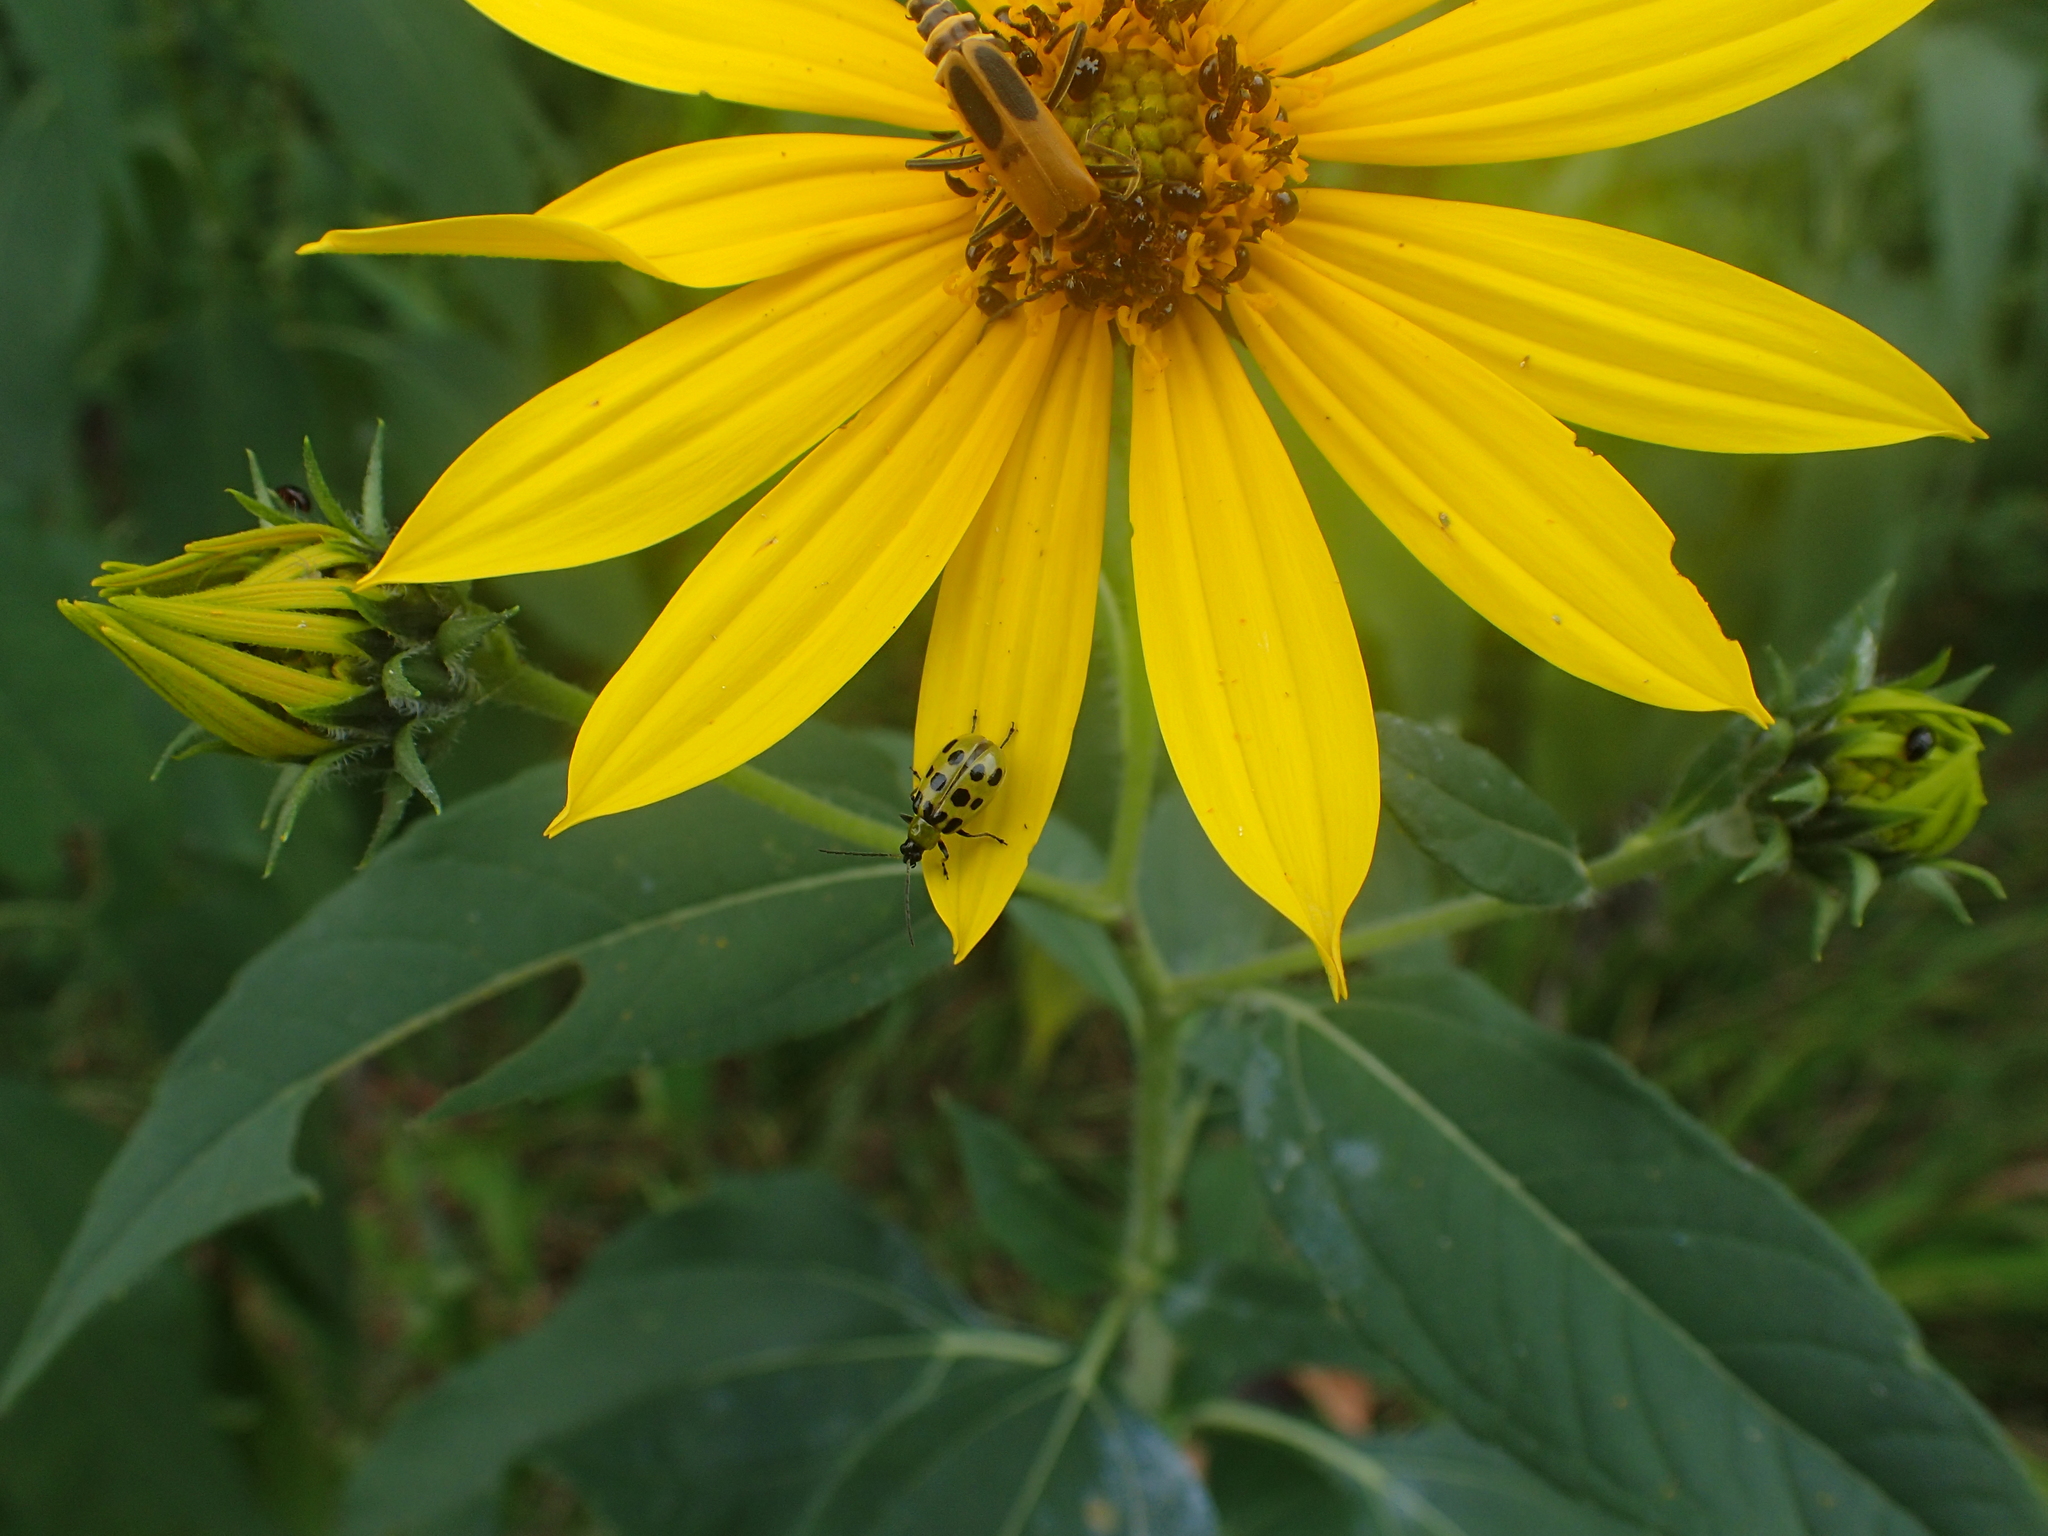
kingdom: Animalia
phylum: Arthropoda
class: Insecta
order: Coleoptera
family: Chrysomelidae
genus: Diabrotica
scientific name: Diabrotica undecimpunctata
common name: Spotted cucumber beetle
